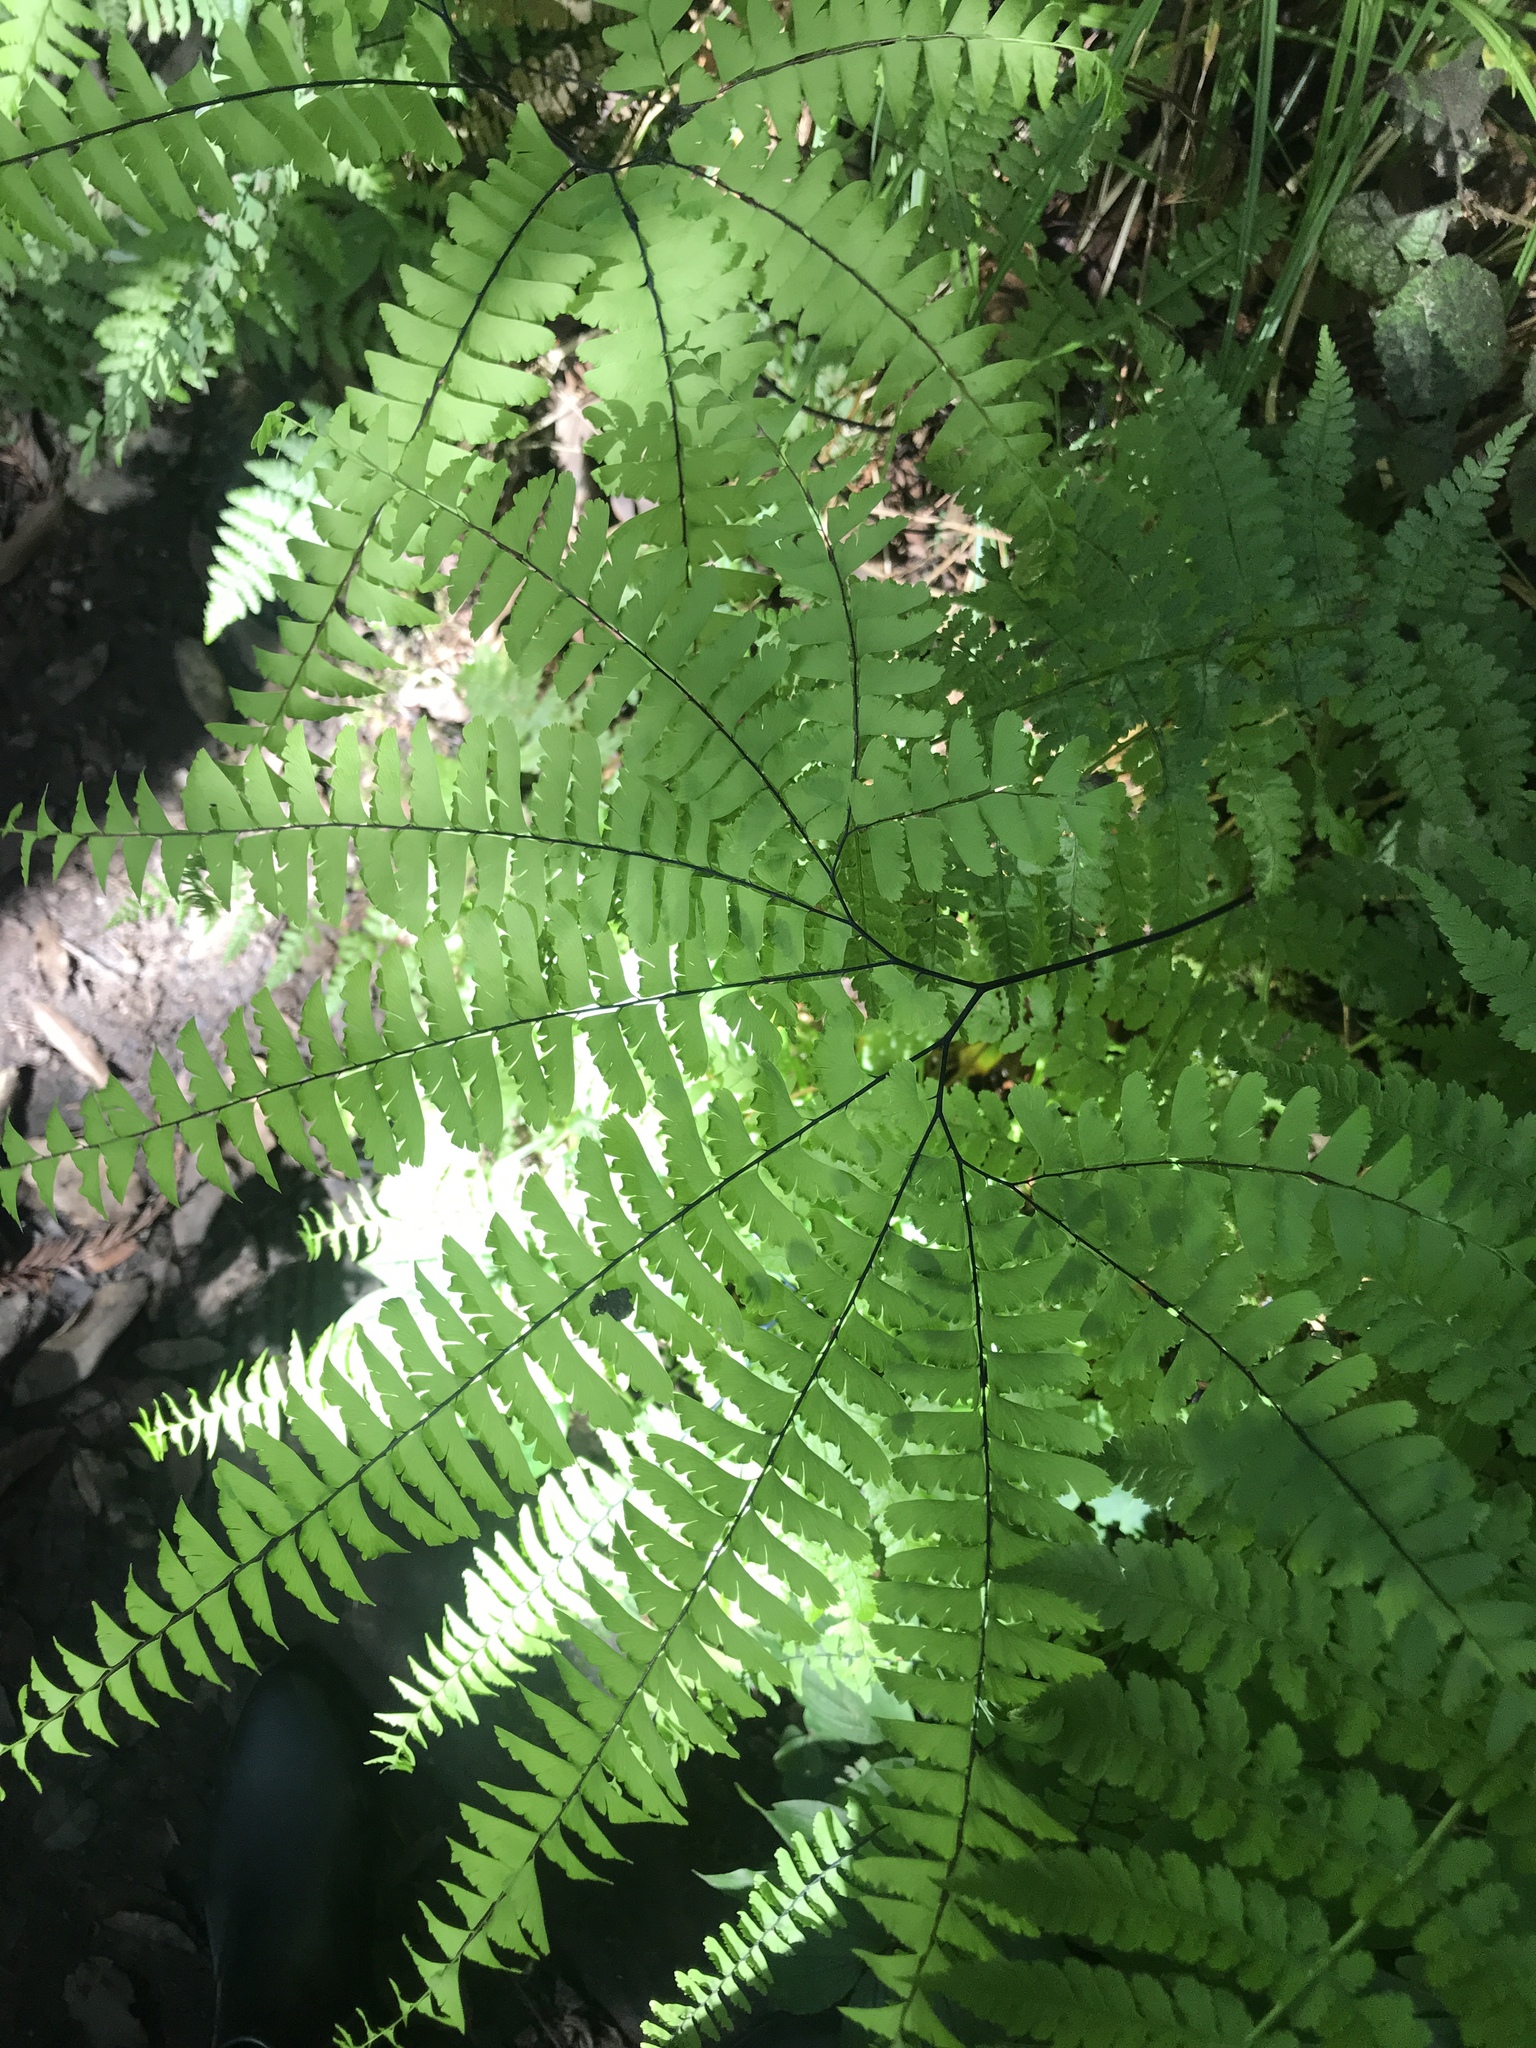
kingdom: Plantae
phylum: Tracheophyta
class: Polypodiopsida
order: Polypodiales
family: Pteridaceae
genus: Adiantum
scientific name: Adiantum aleuticum
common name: Aleutian maidenhair fern
